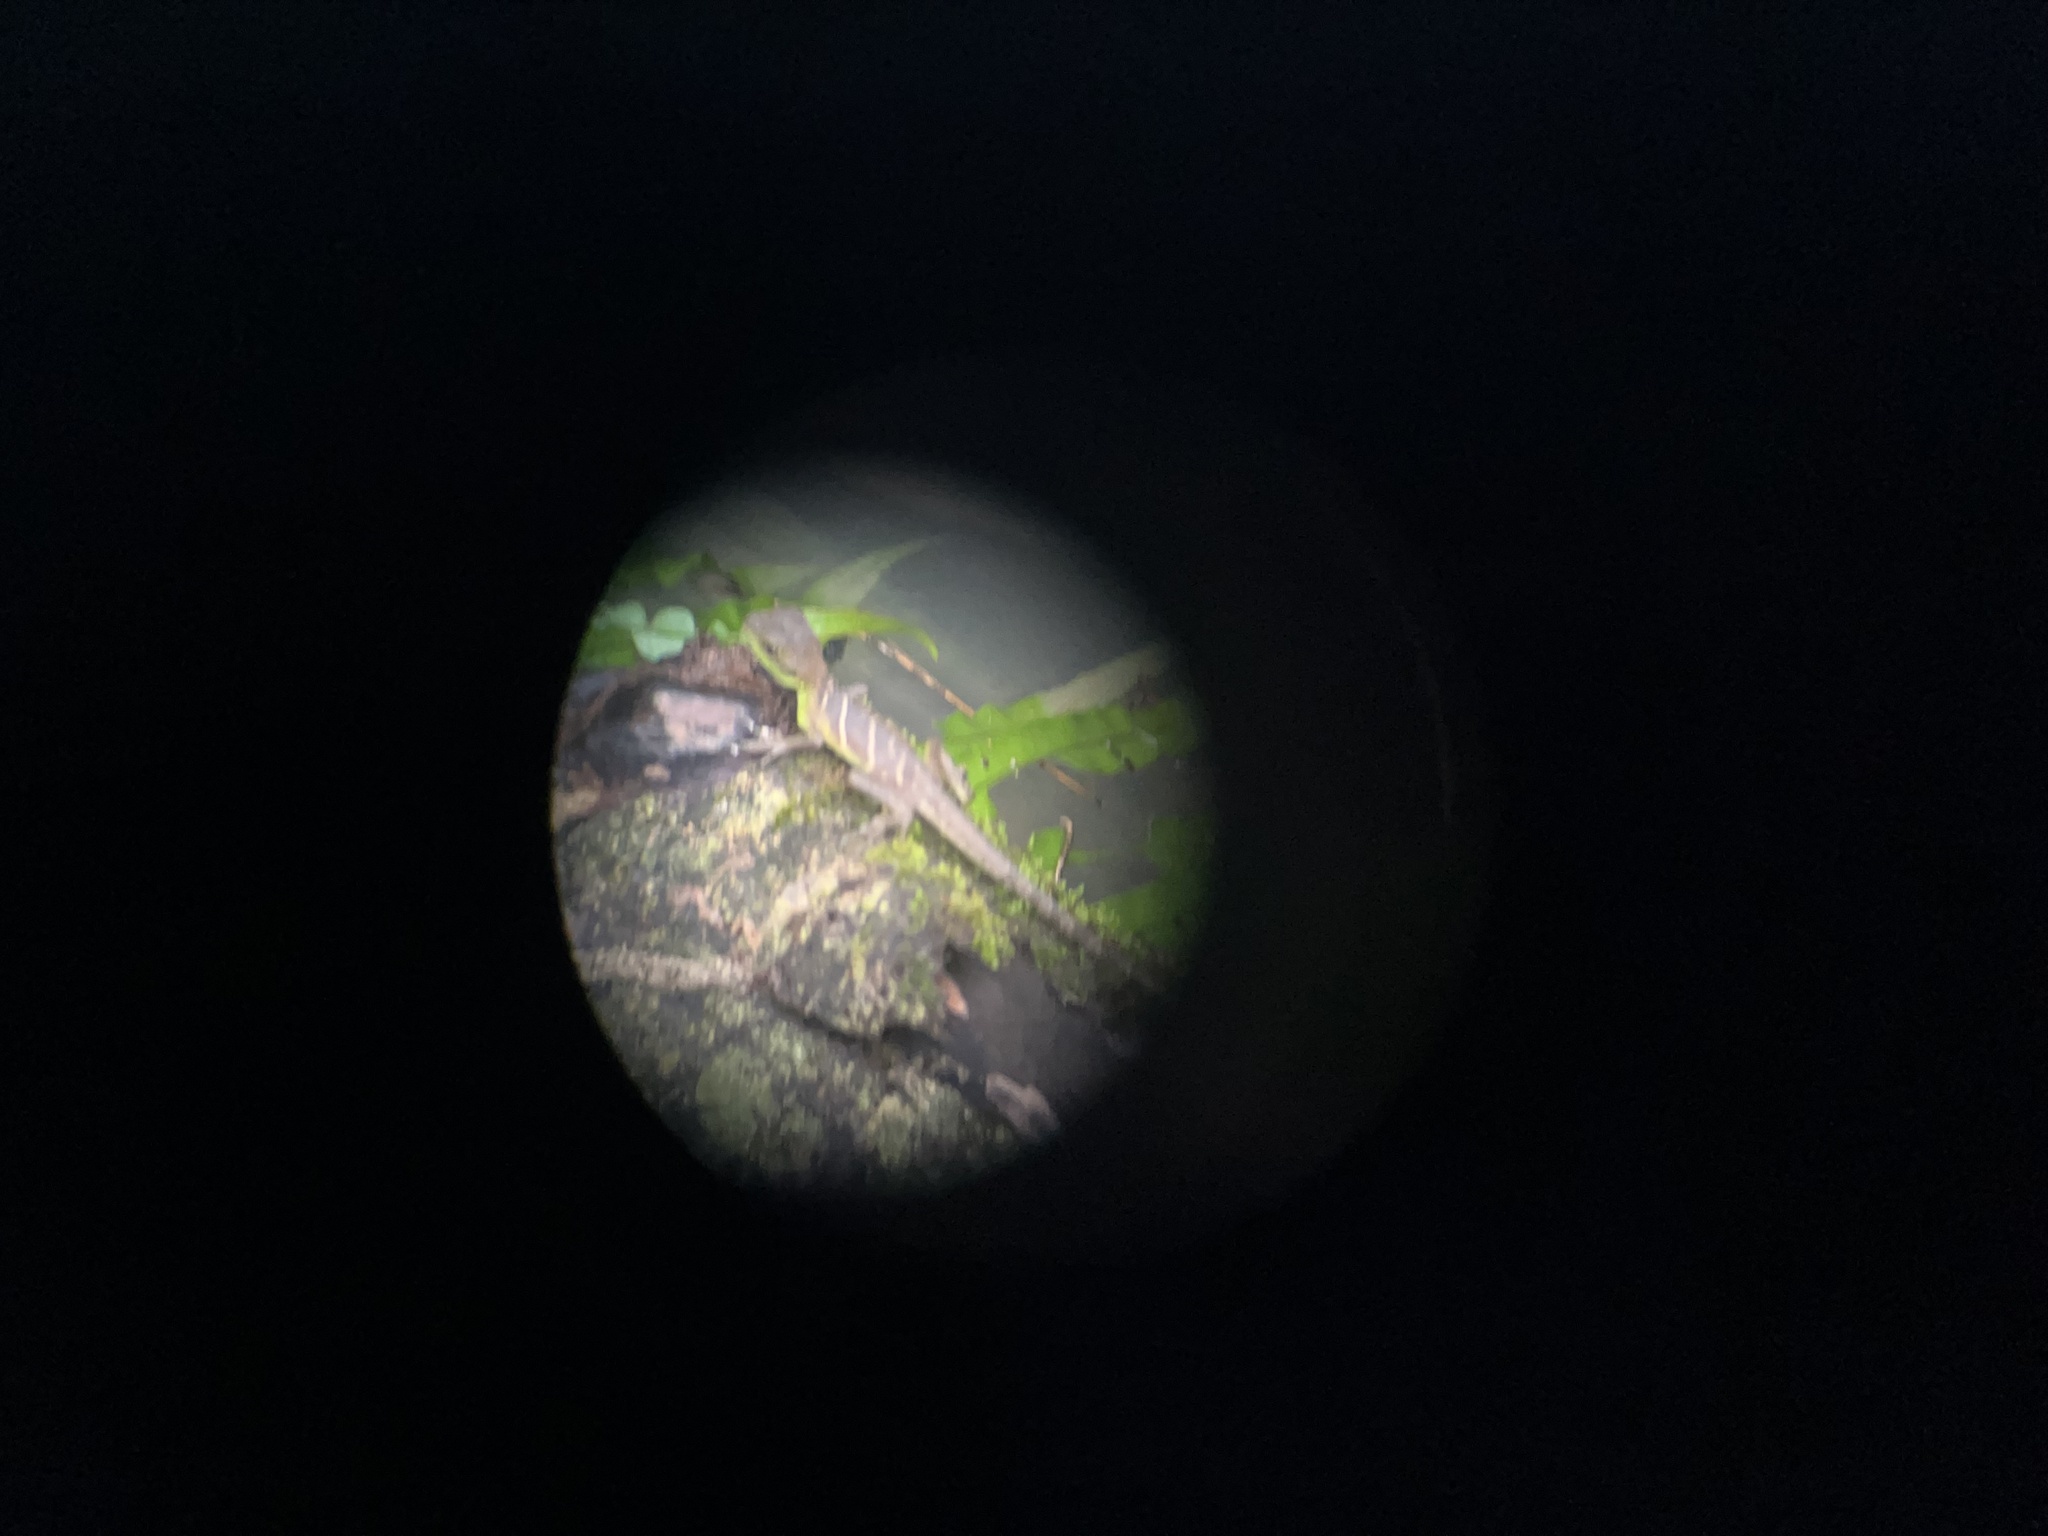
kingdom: Animalia
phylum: Chordata
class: Squamata
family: Agamidae
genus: Physignathus
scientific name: Physignathus cocincinus
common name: Asian water dragon
